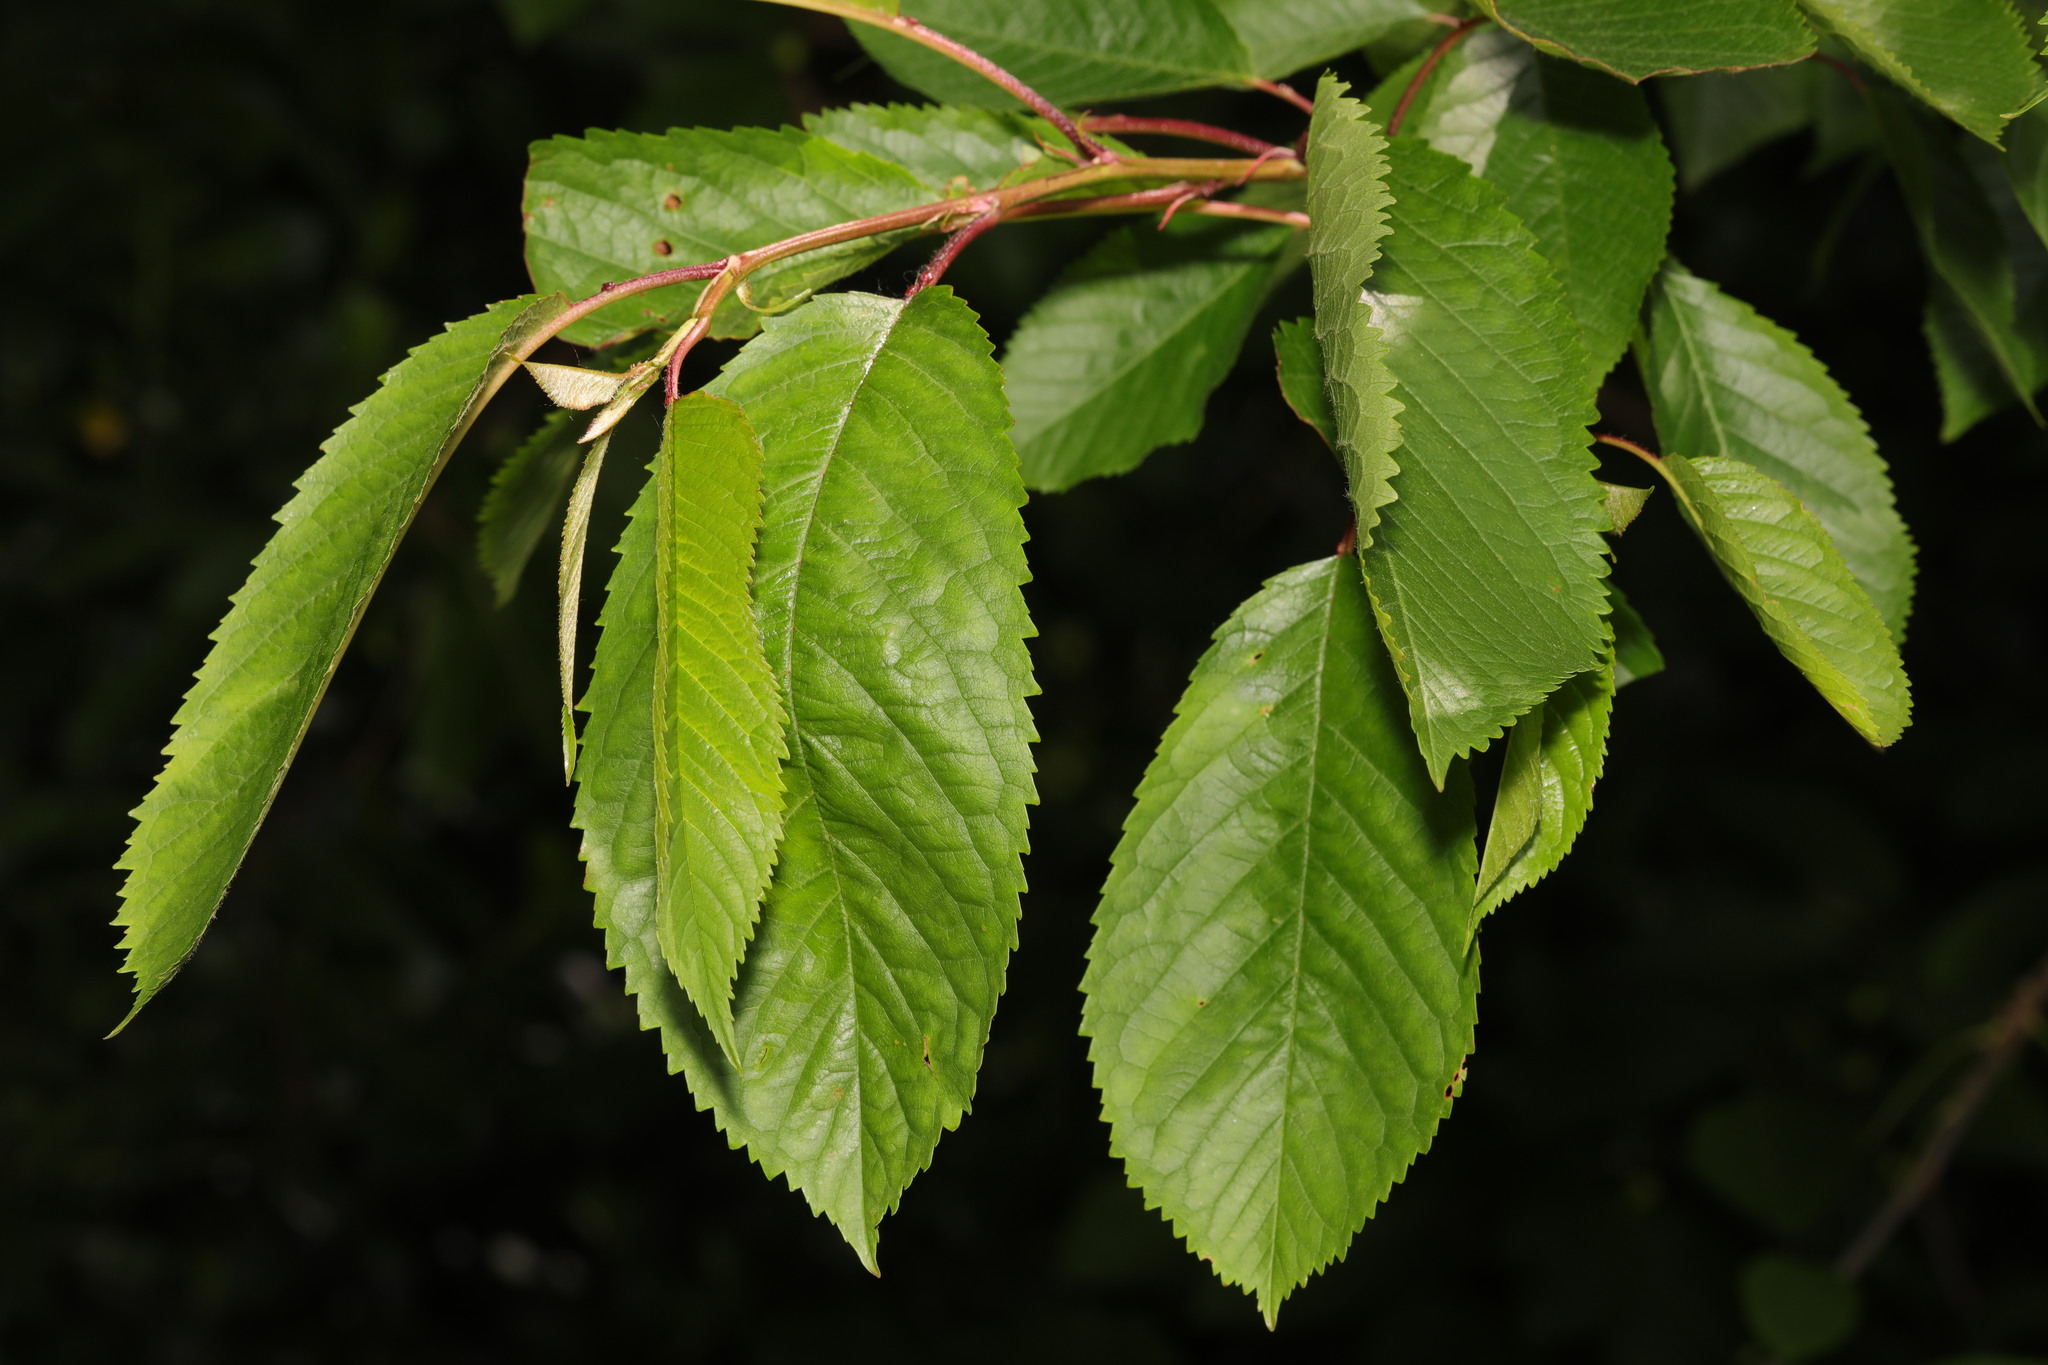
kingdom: Plantae
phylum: Tracheophyta
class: Magnoliopsida
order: Rosales
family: Rosaceae
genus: Prunus
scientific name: Prunus avium
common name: Sweet cherry
